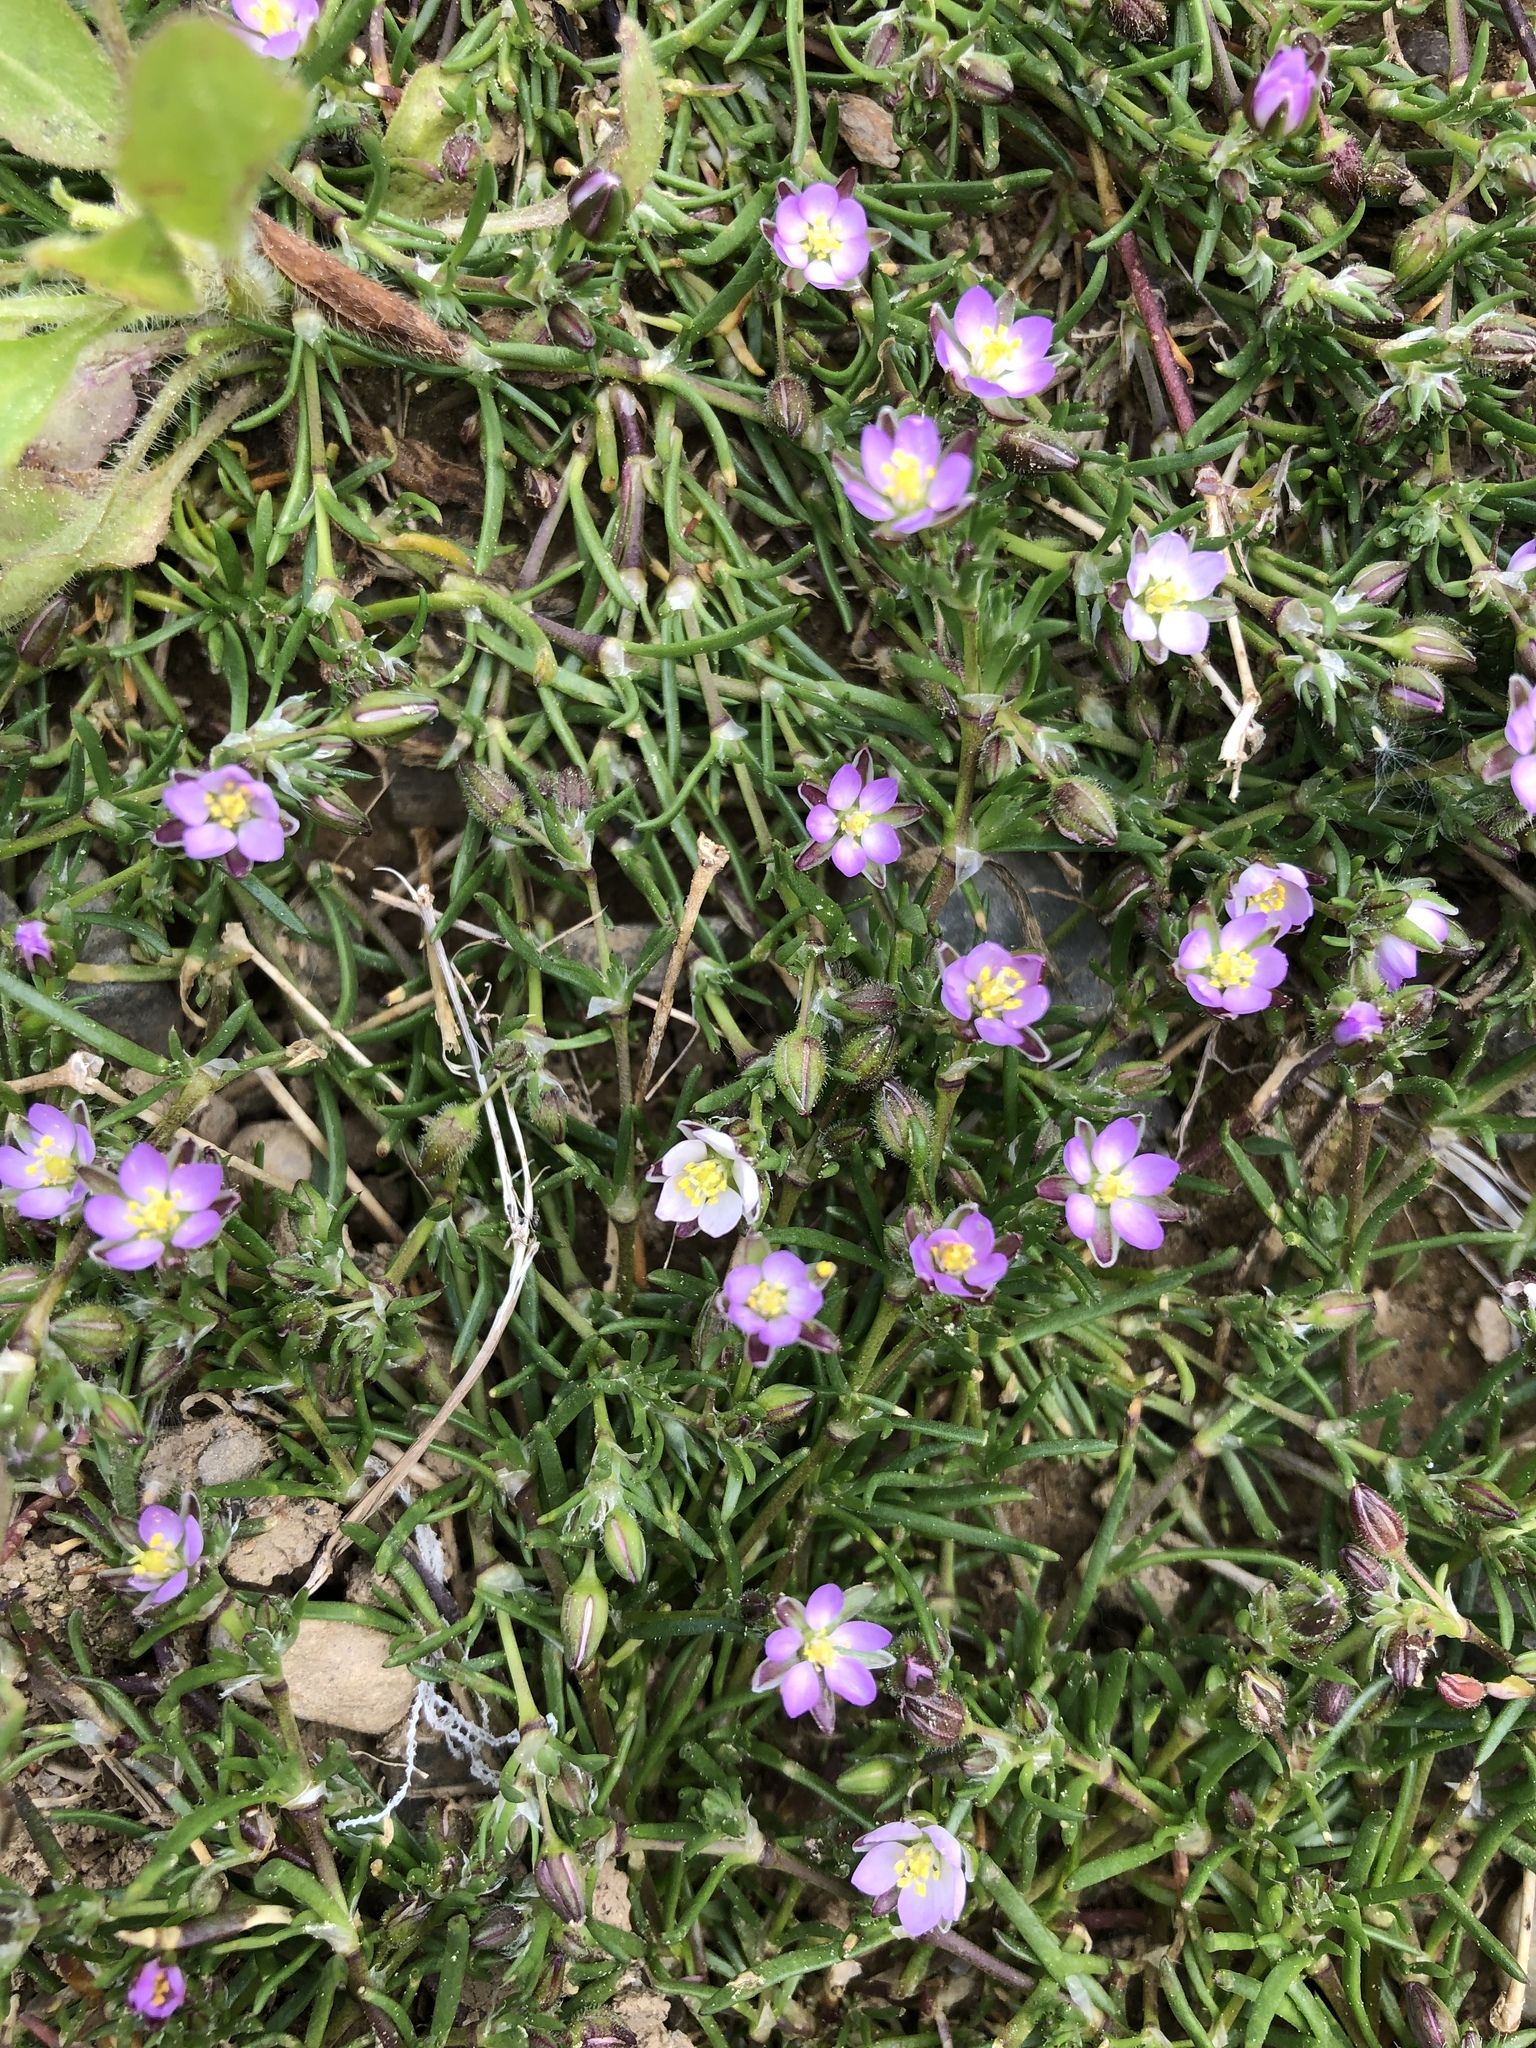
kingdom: Plantae
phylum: Tracheophyta
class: Magnoliopsida
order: Caryophyllales
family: Caryophyllaceae
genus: Spergularia
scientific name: Spergularia rubra
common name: Red sand-spurrey
